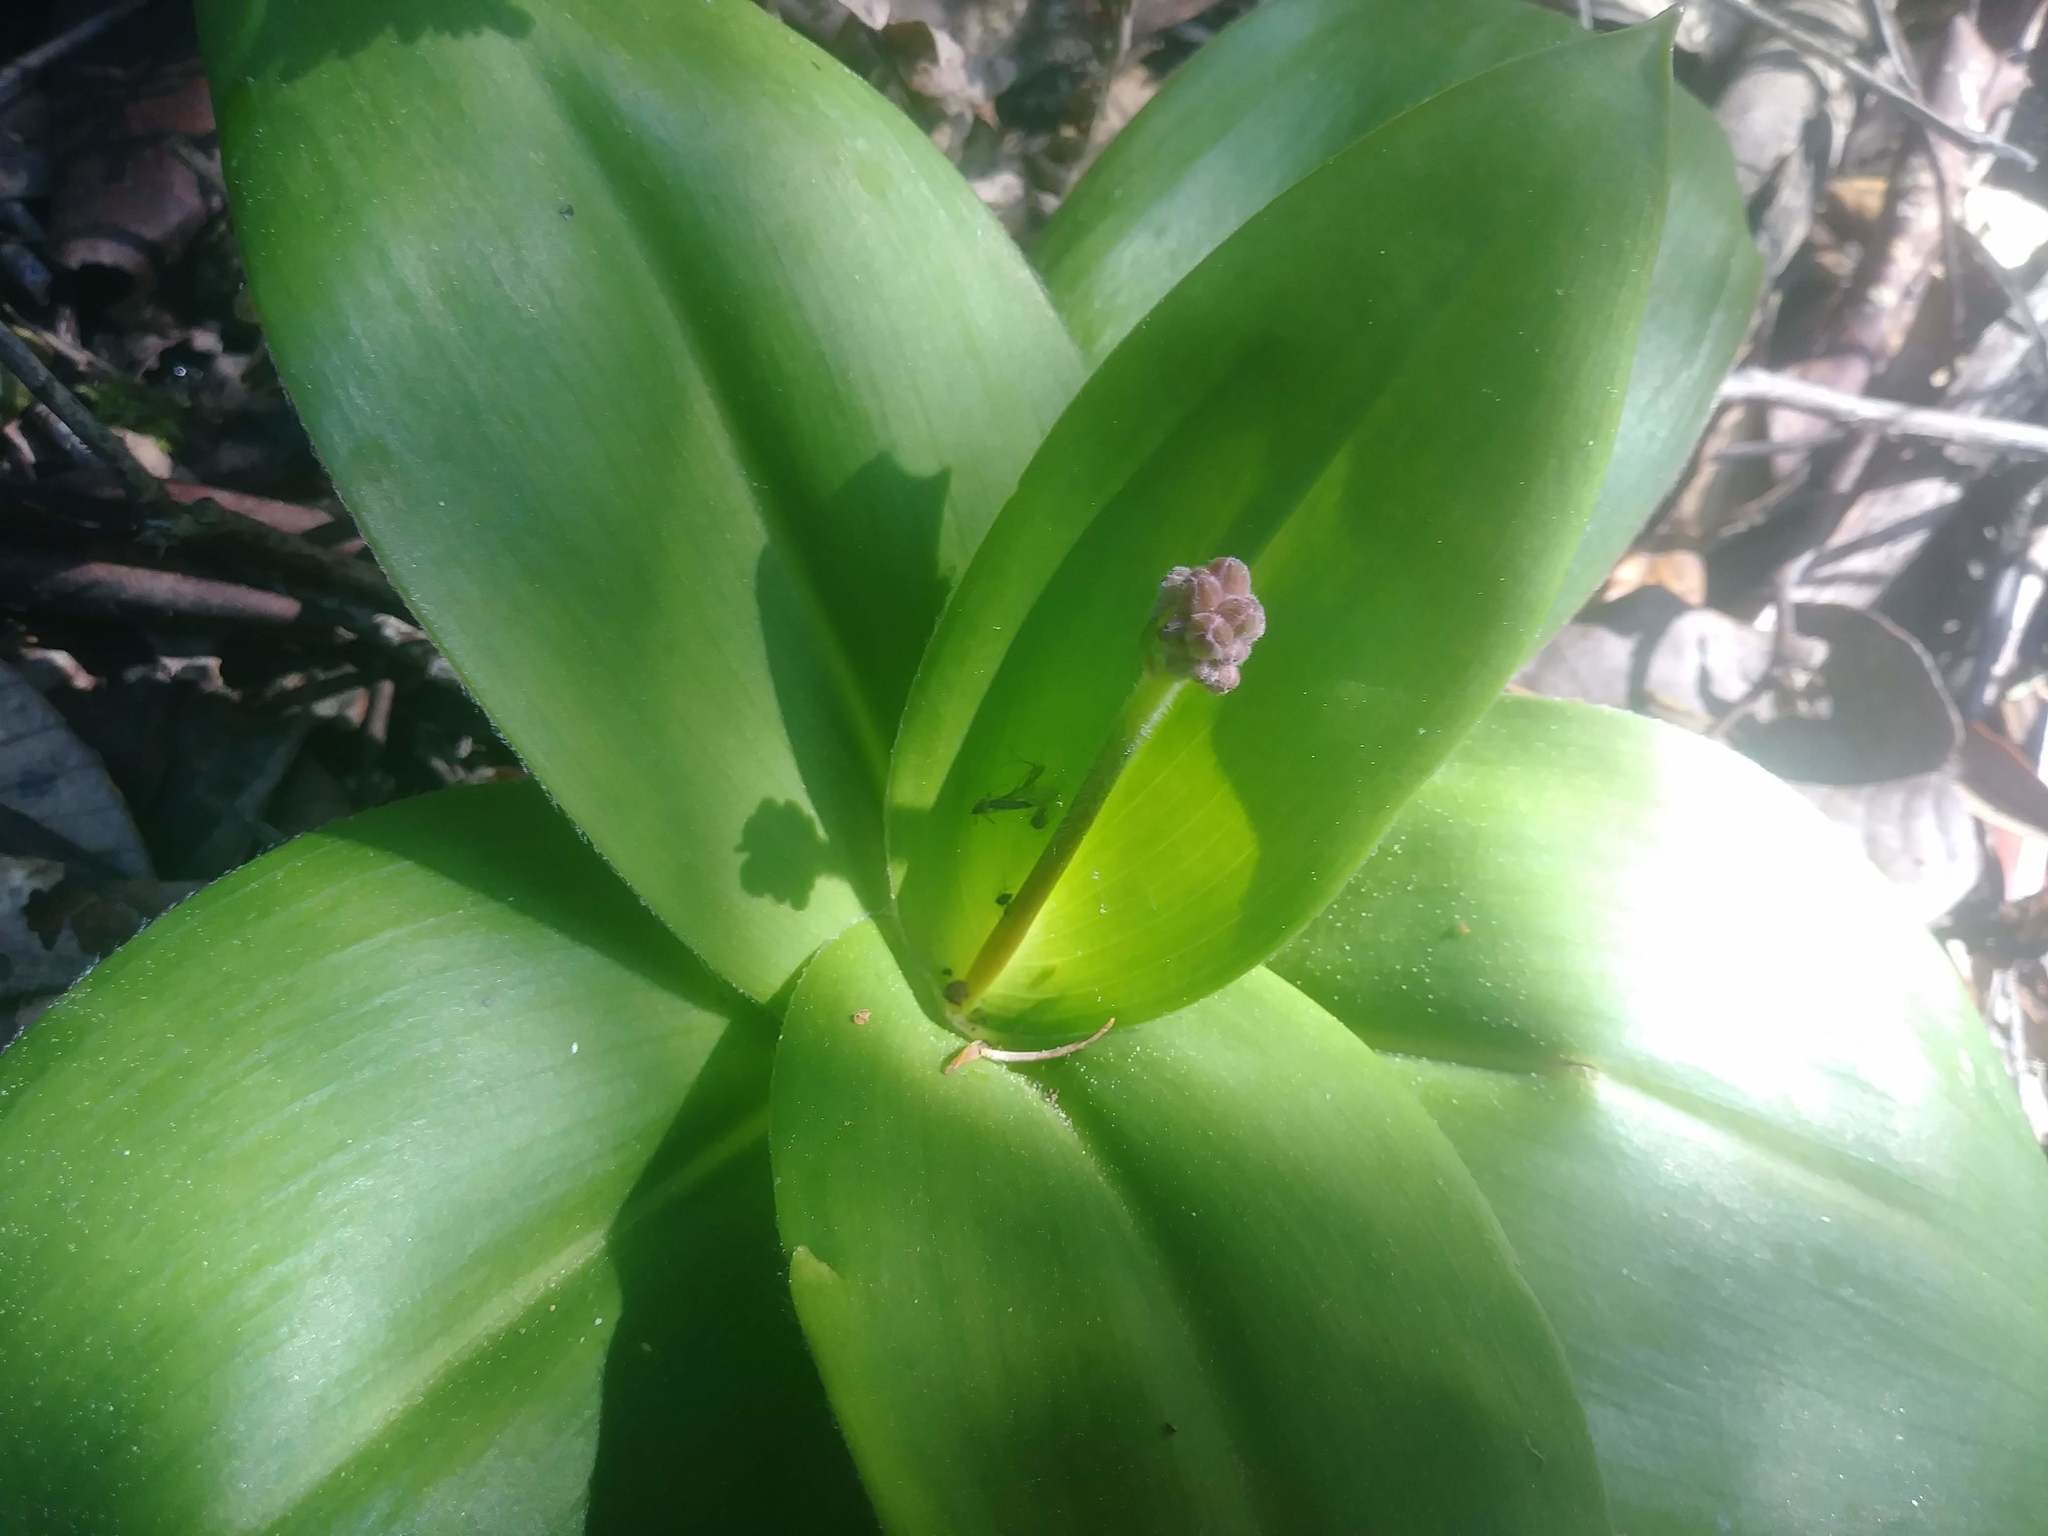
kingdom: Plantae
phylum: Tracheophyta
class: Liliopsida
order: Liliales
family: Liliaceae
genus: Clintonia
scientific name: Clintonia andrewsiana
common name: Red clintonia
